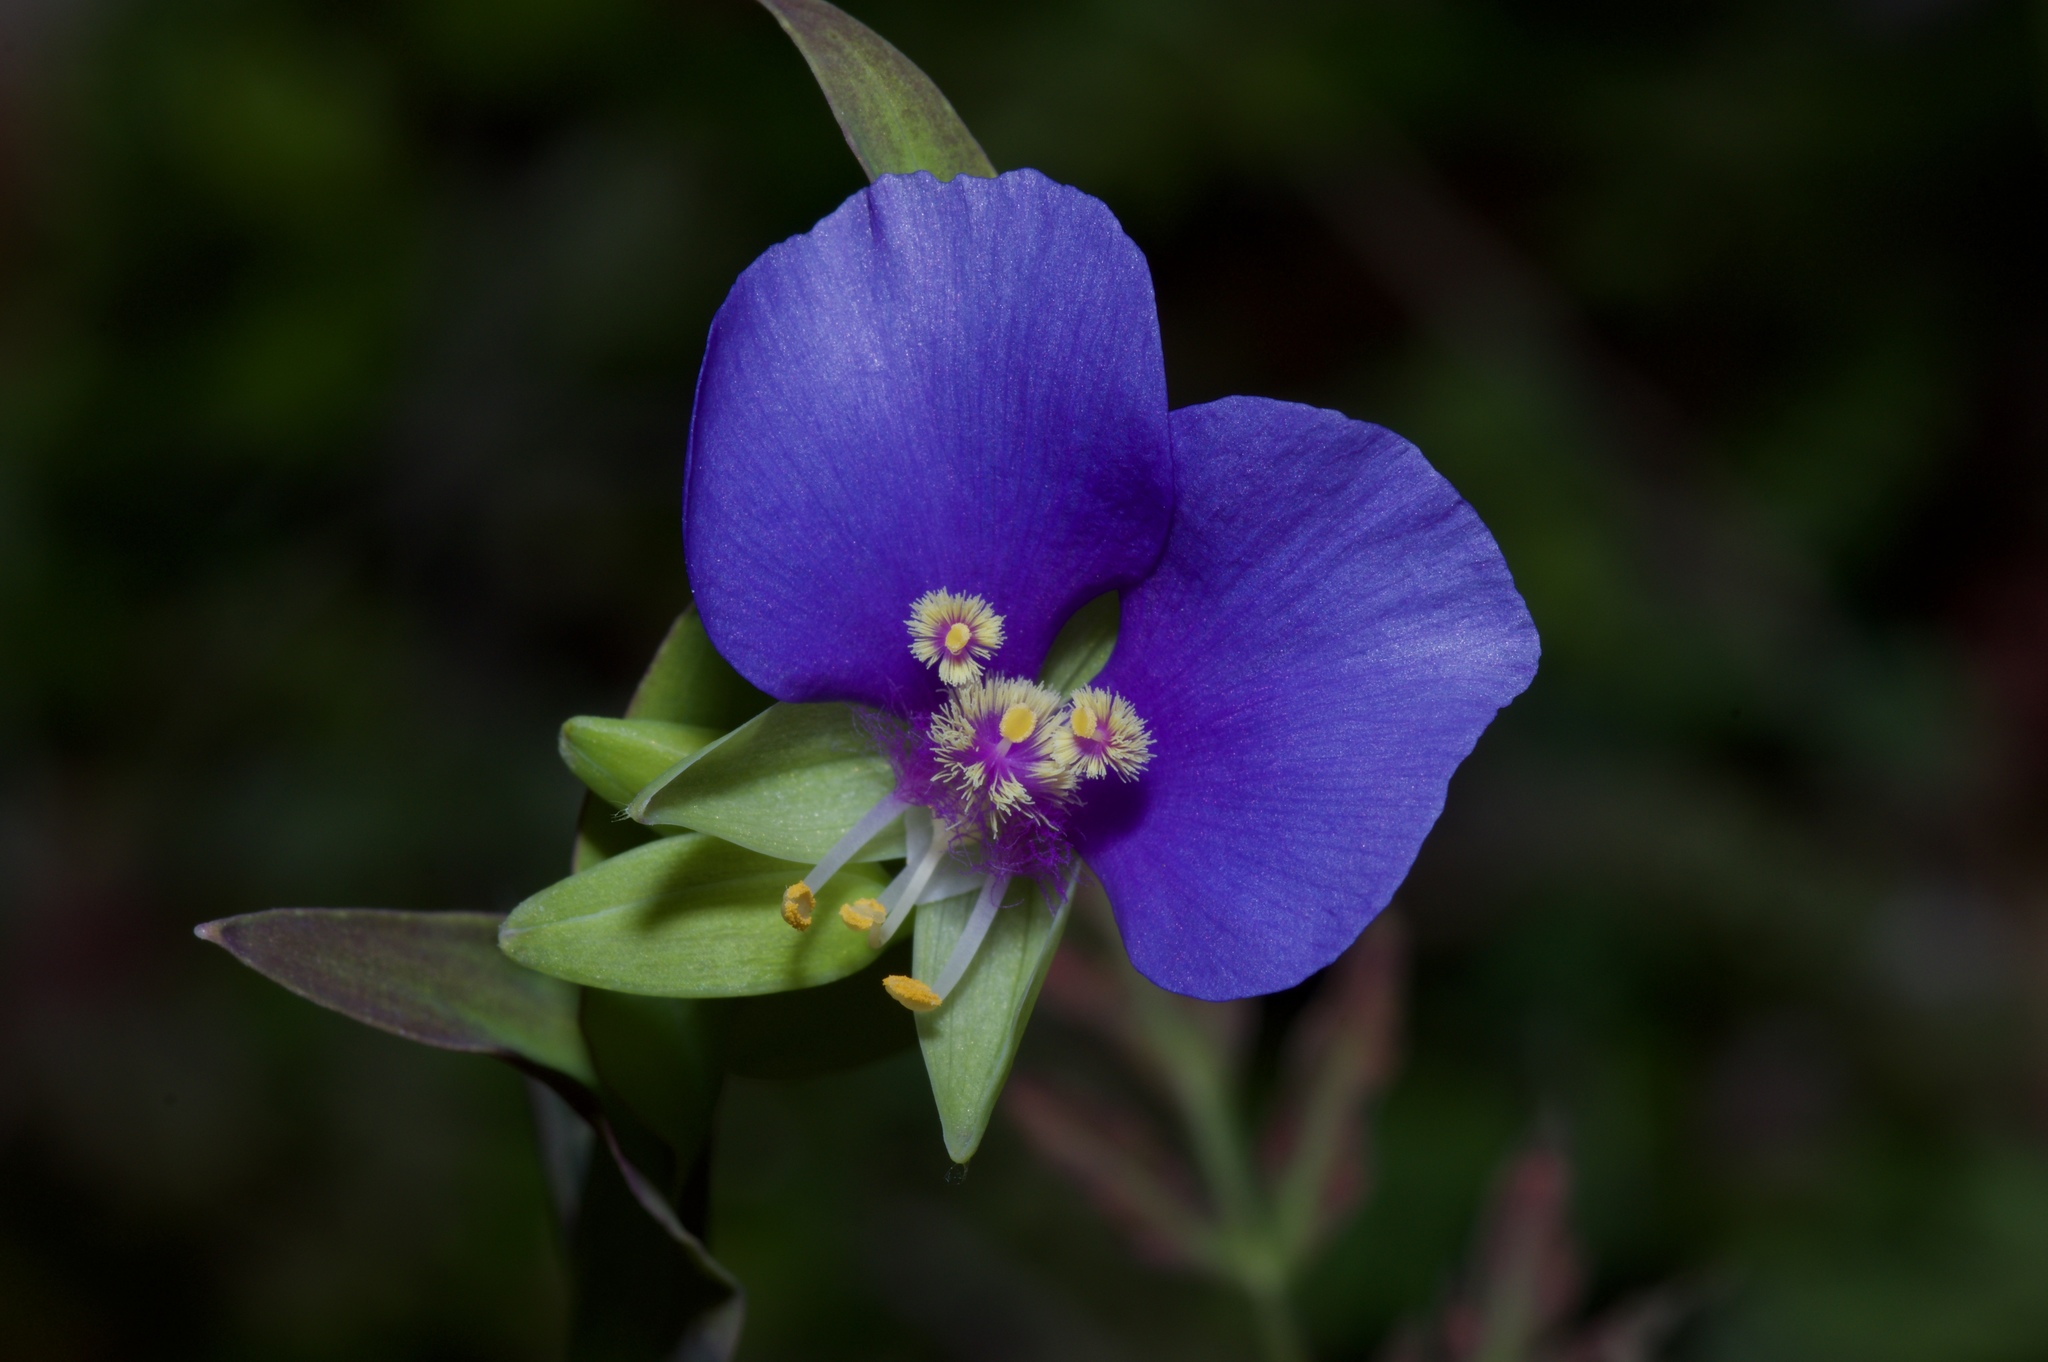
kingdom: Plantae
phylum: Tracheophyta
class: Liliopsida
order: Commelinales
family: Commelinaceae
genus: Tinantia
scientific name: Tinantia anomala
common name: False dayflower
